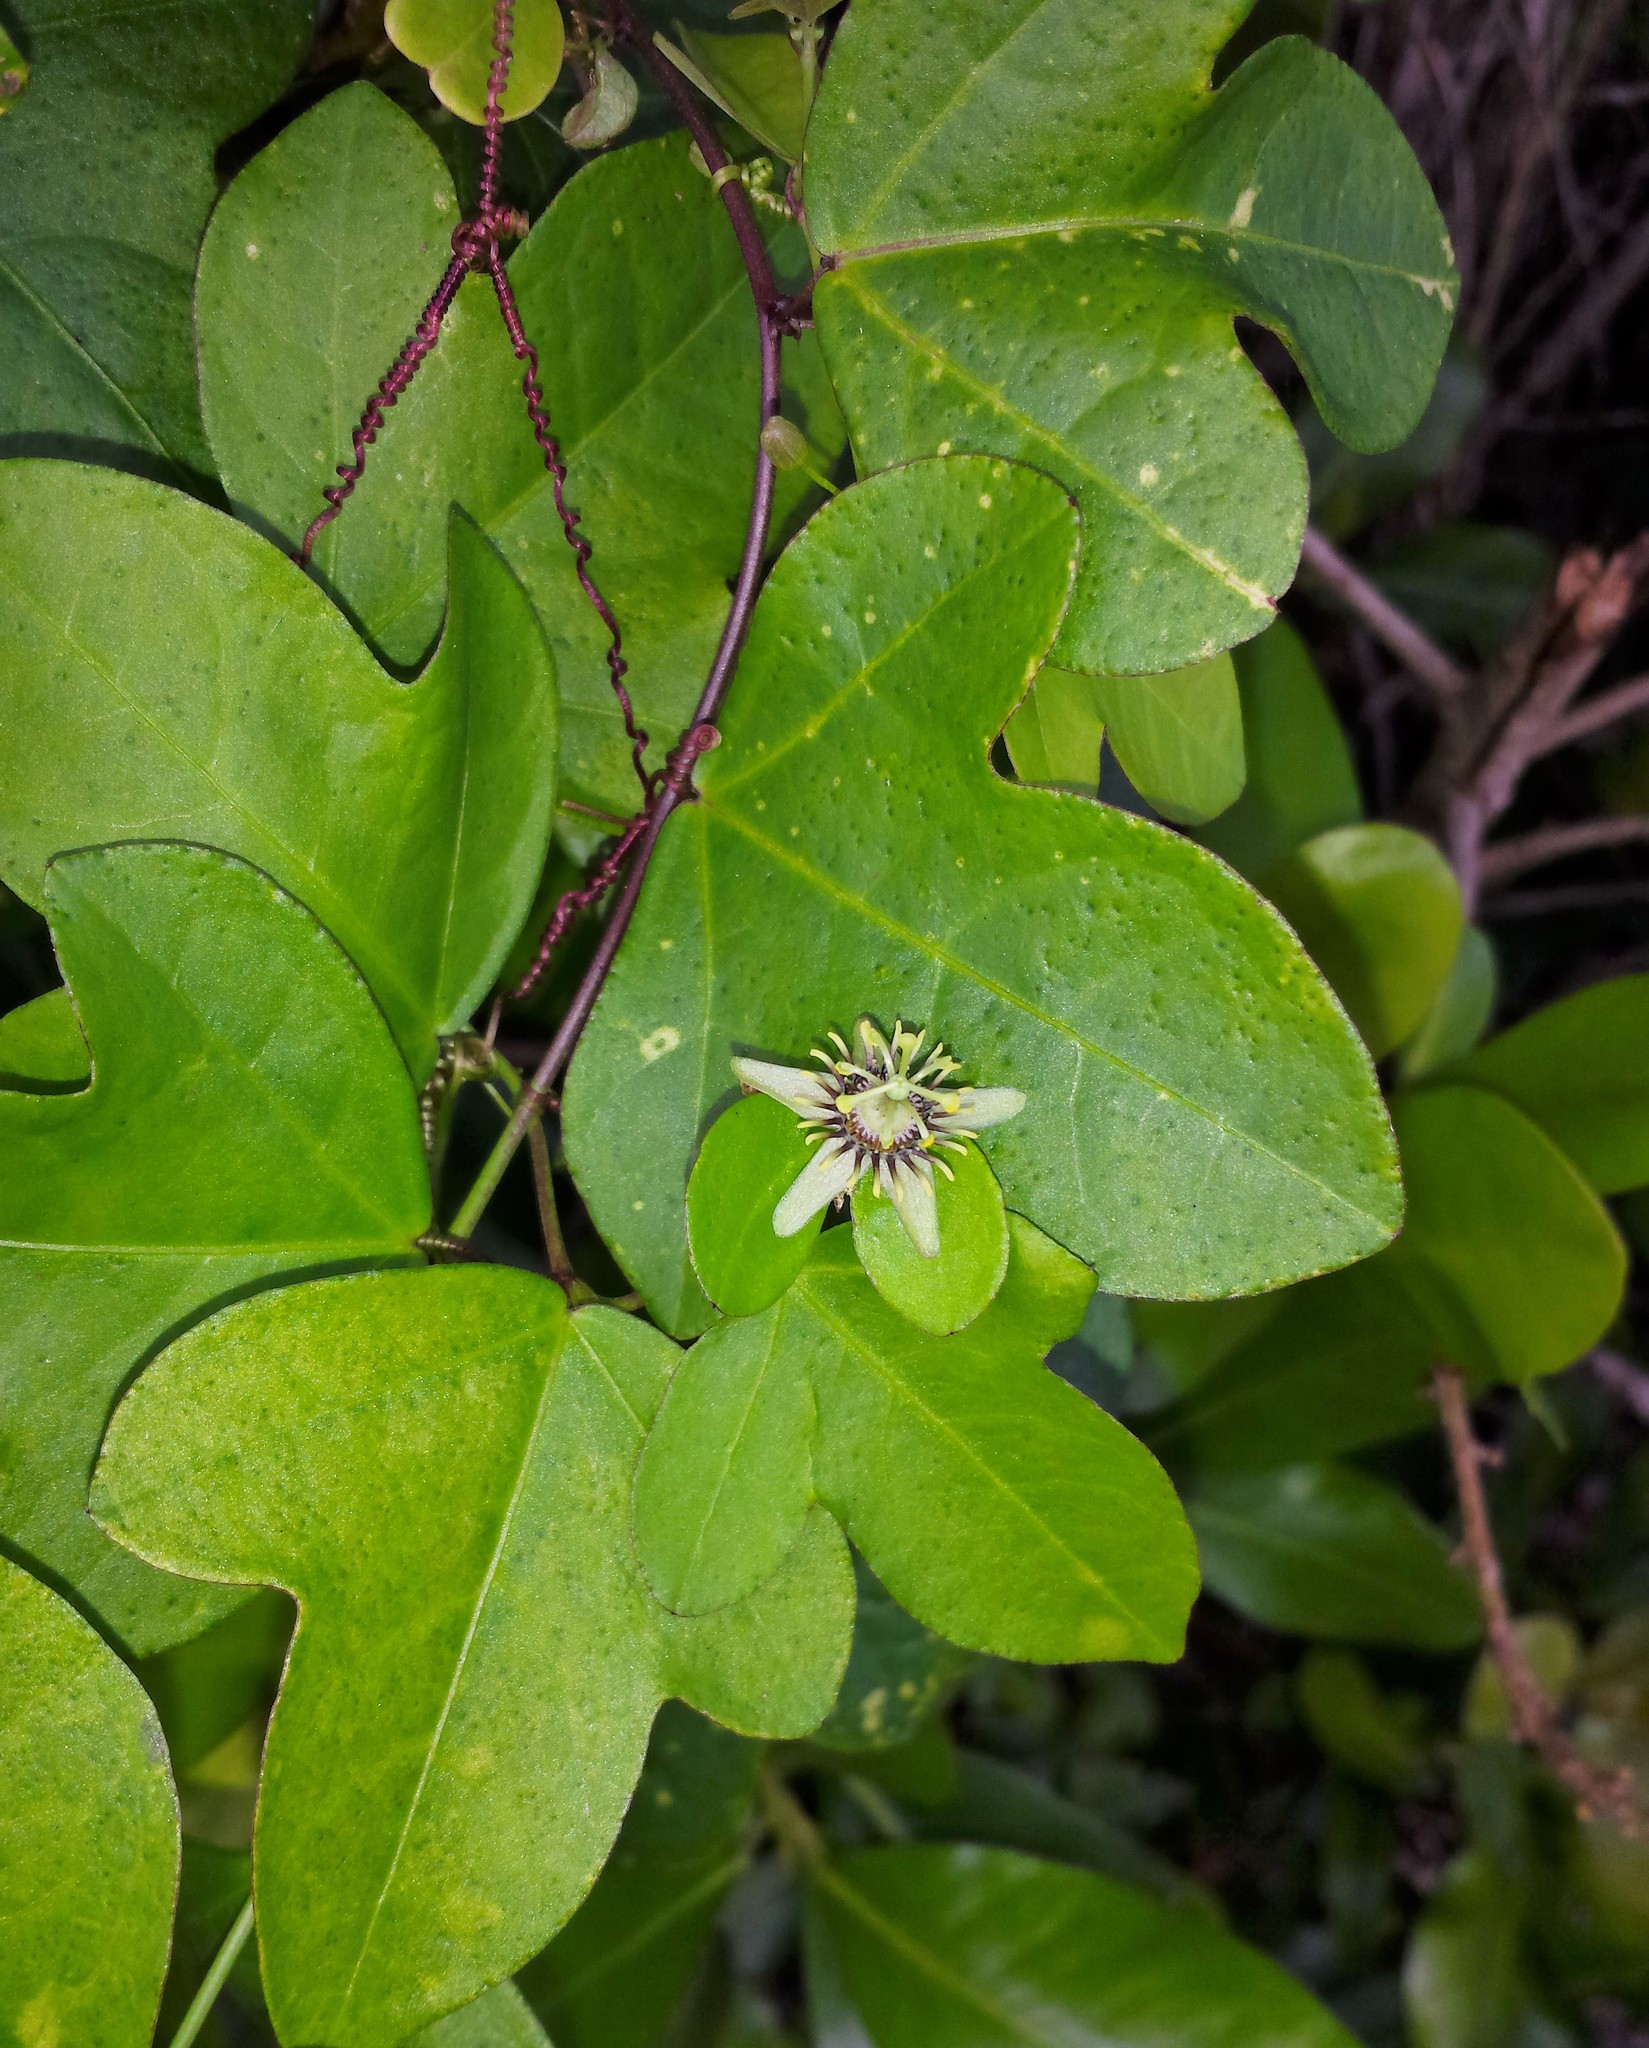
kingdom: Plantae
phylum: Tracheophyta
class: Magnoliopsida
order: Malpighiales
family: Passifloraceae
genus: Passiflora
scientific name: Passiflora pallida
